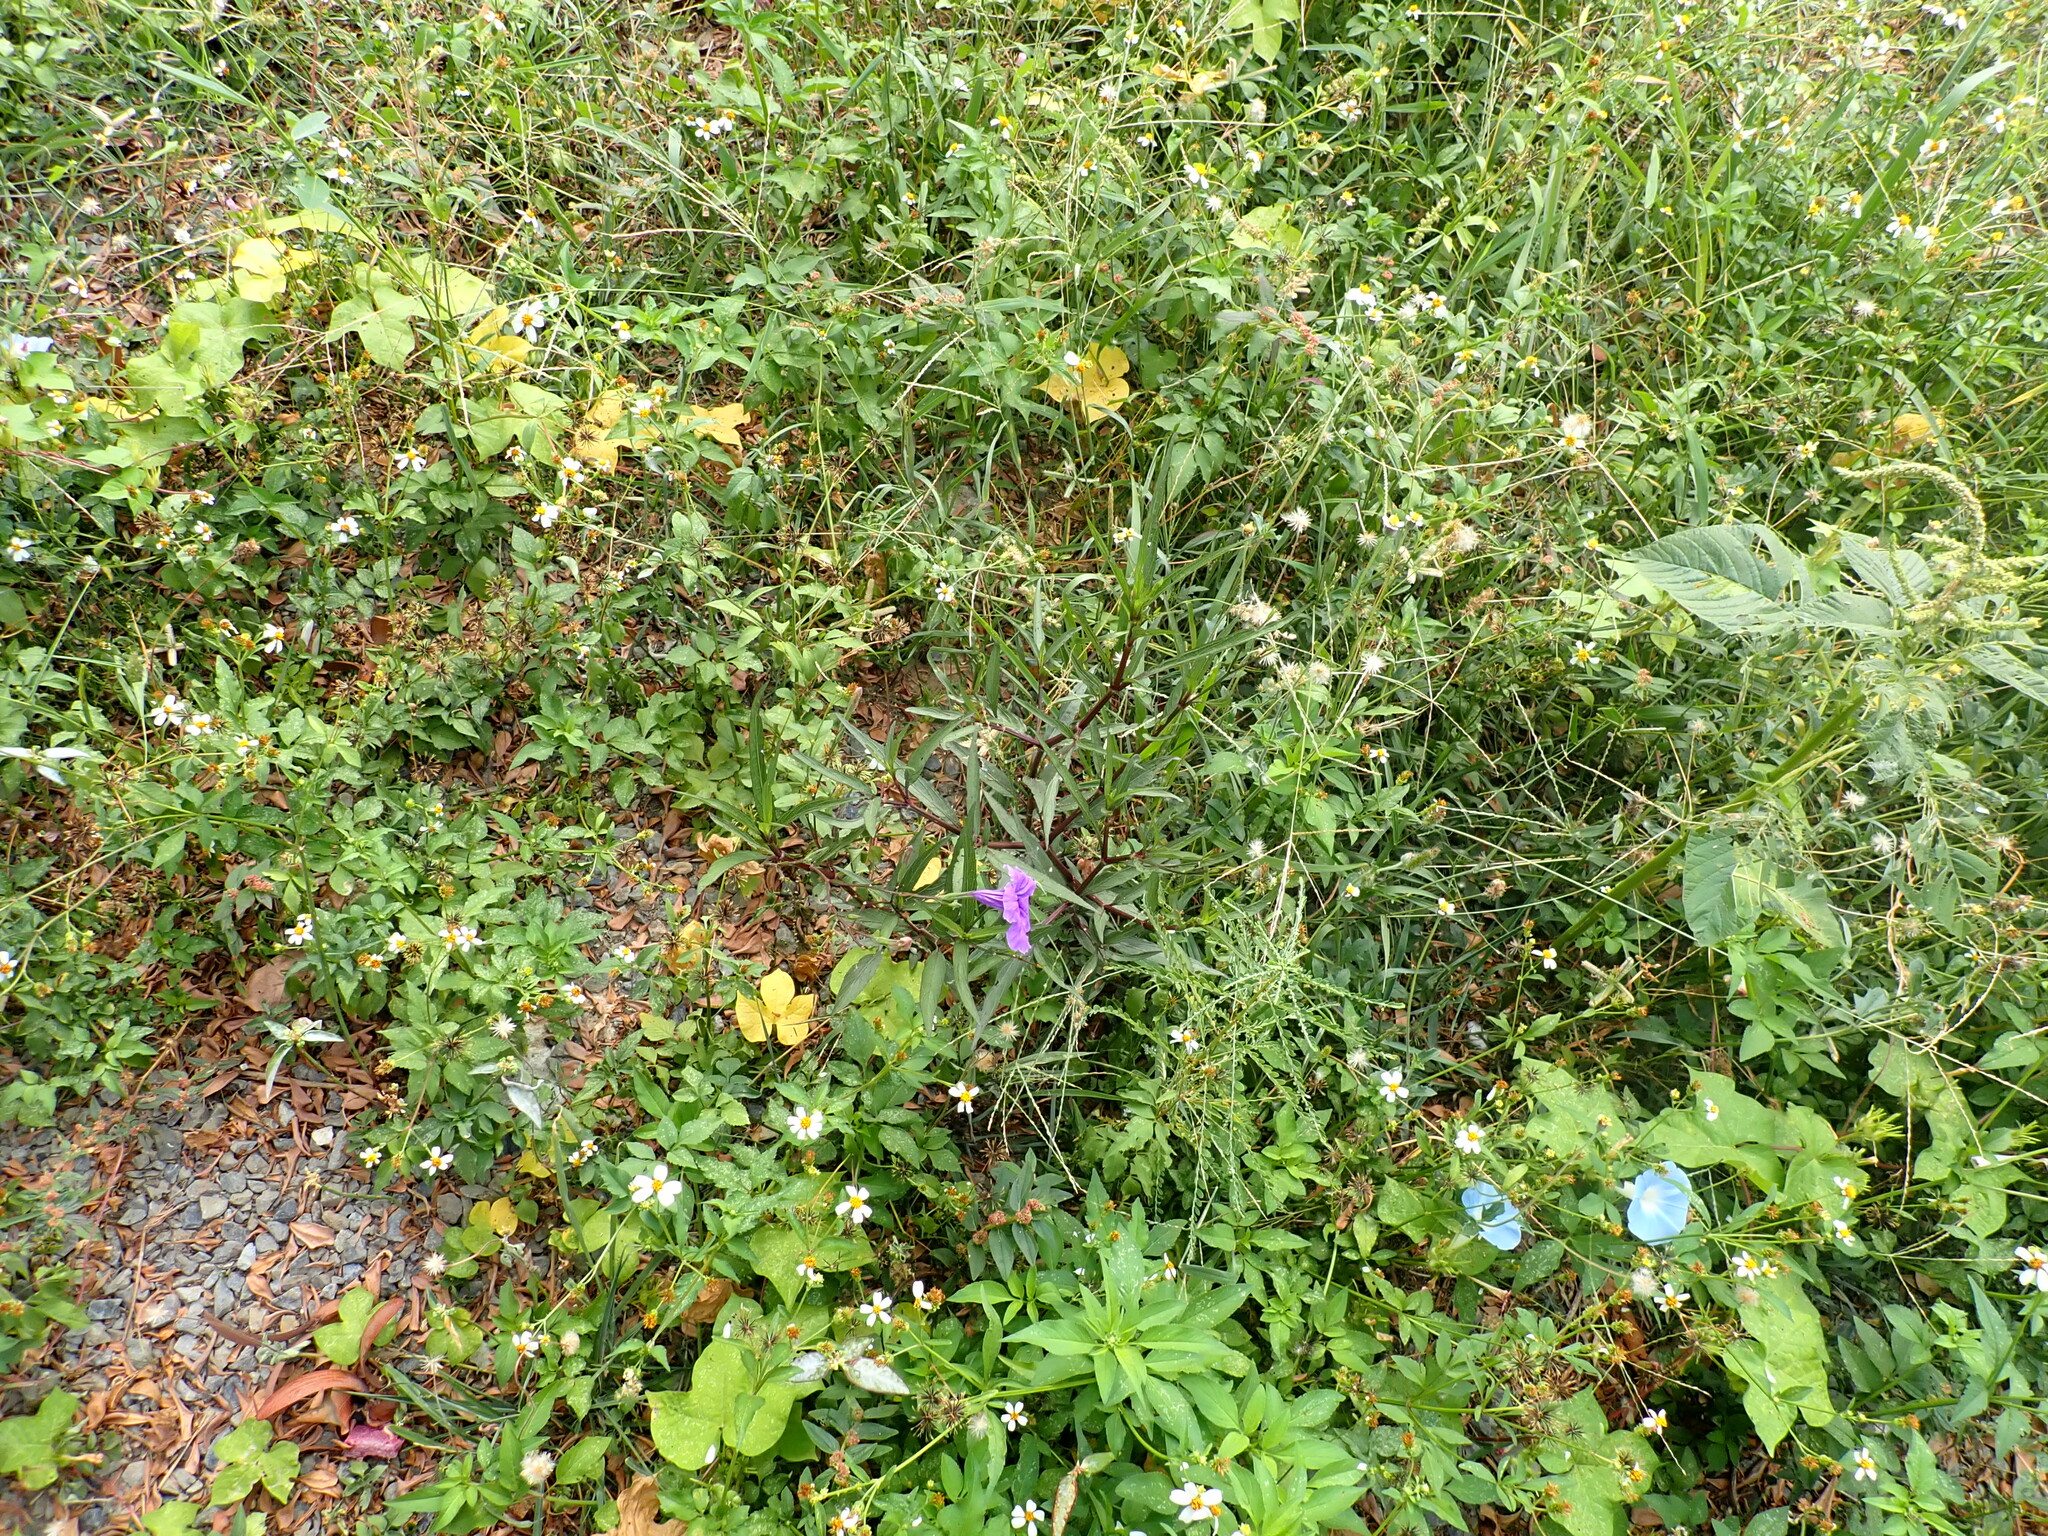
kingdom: Plantae
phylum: Tracheophyta
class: Magnoliopsida
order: Lamiales
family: Acanthaceae
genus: Ruellia
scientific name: Ruellia simplex
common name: Softseed wild petunia
